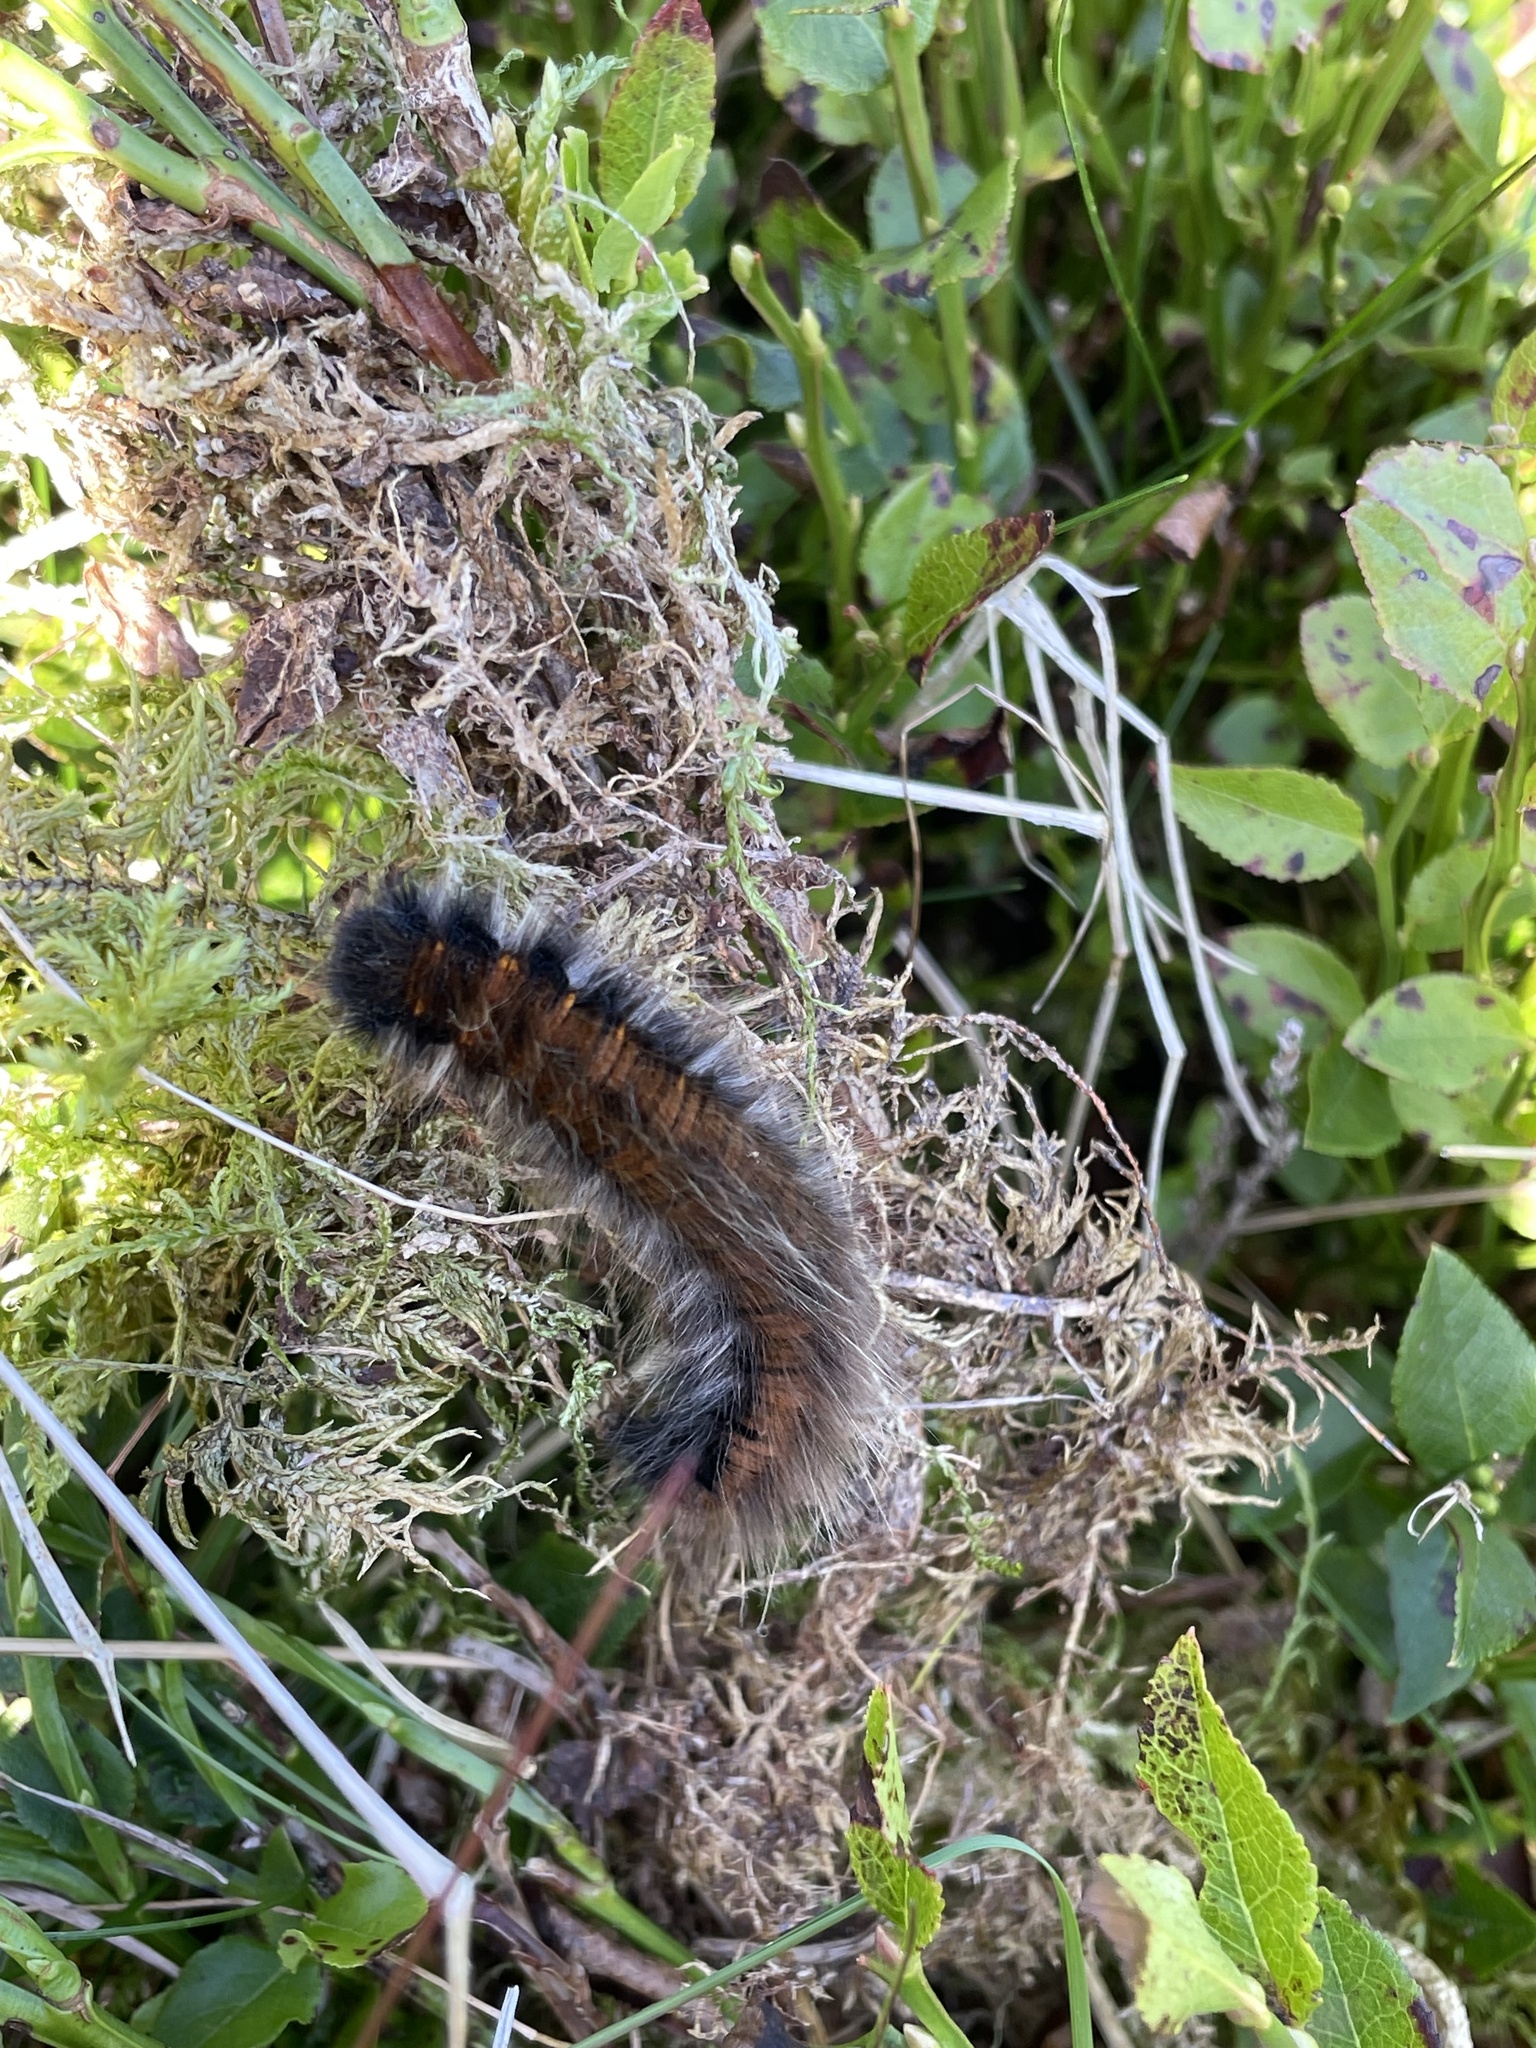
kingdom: Animalia
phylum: Arthropoda
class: Insecta
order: Lepidoptera
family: Lasiocampidae
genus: Macrothylacia
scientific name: Macrothylacia rubi
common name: Fox moth
